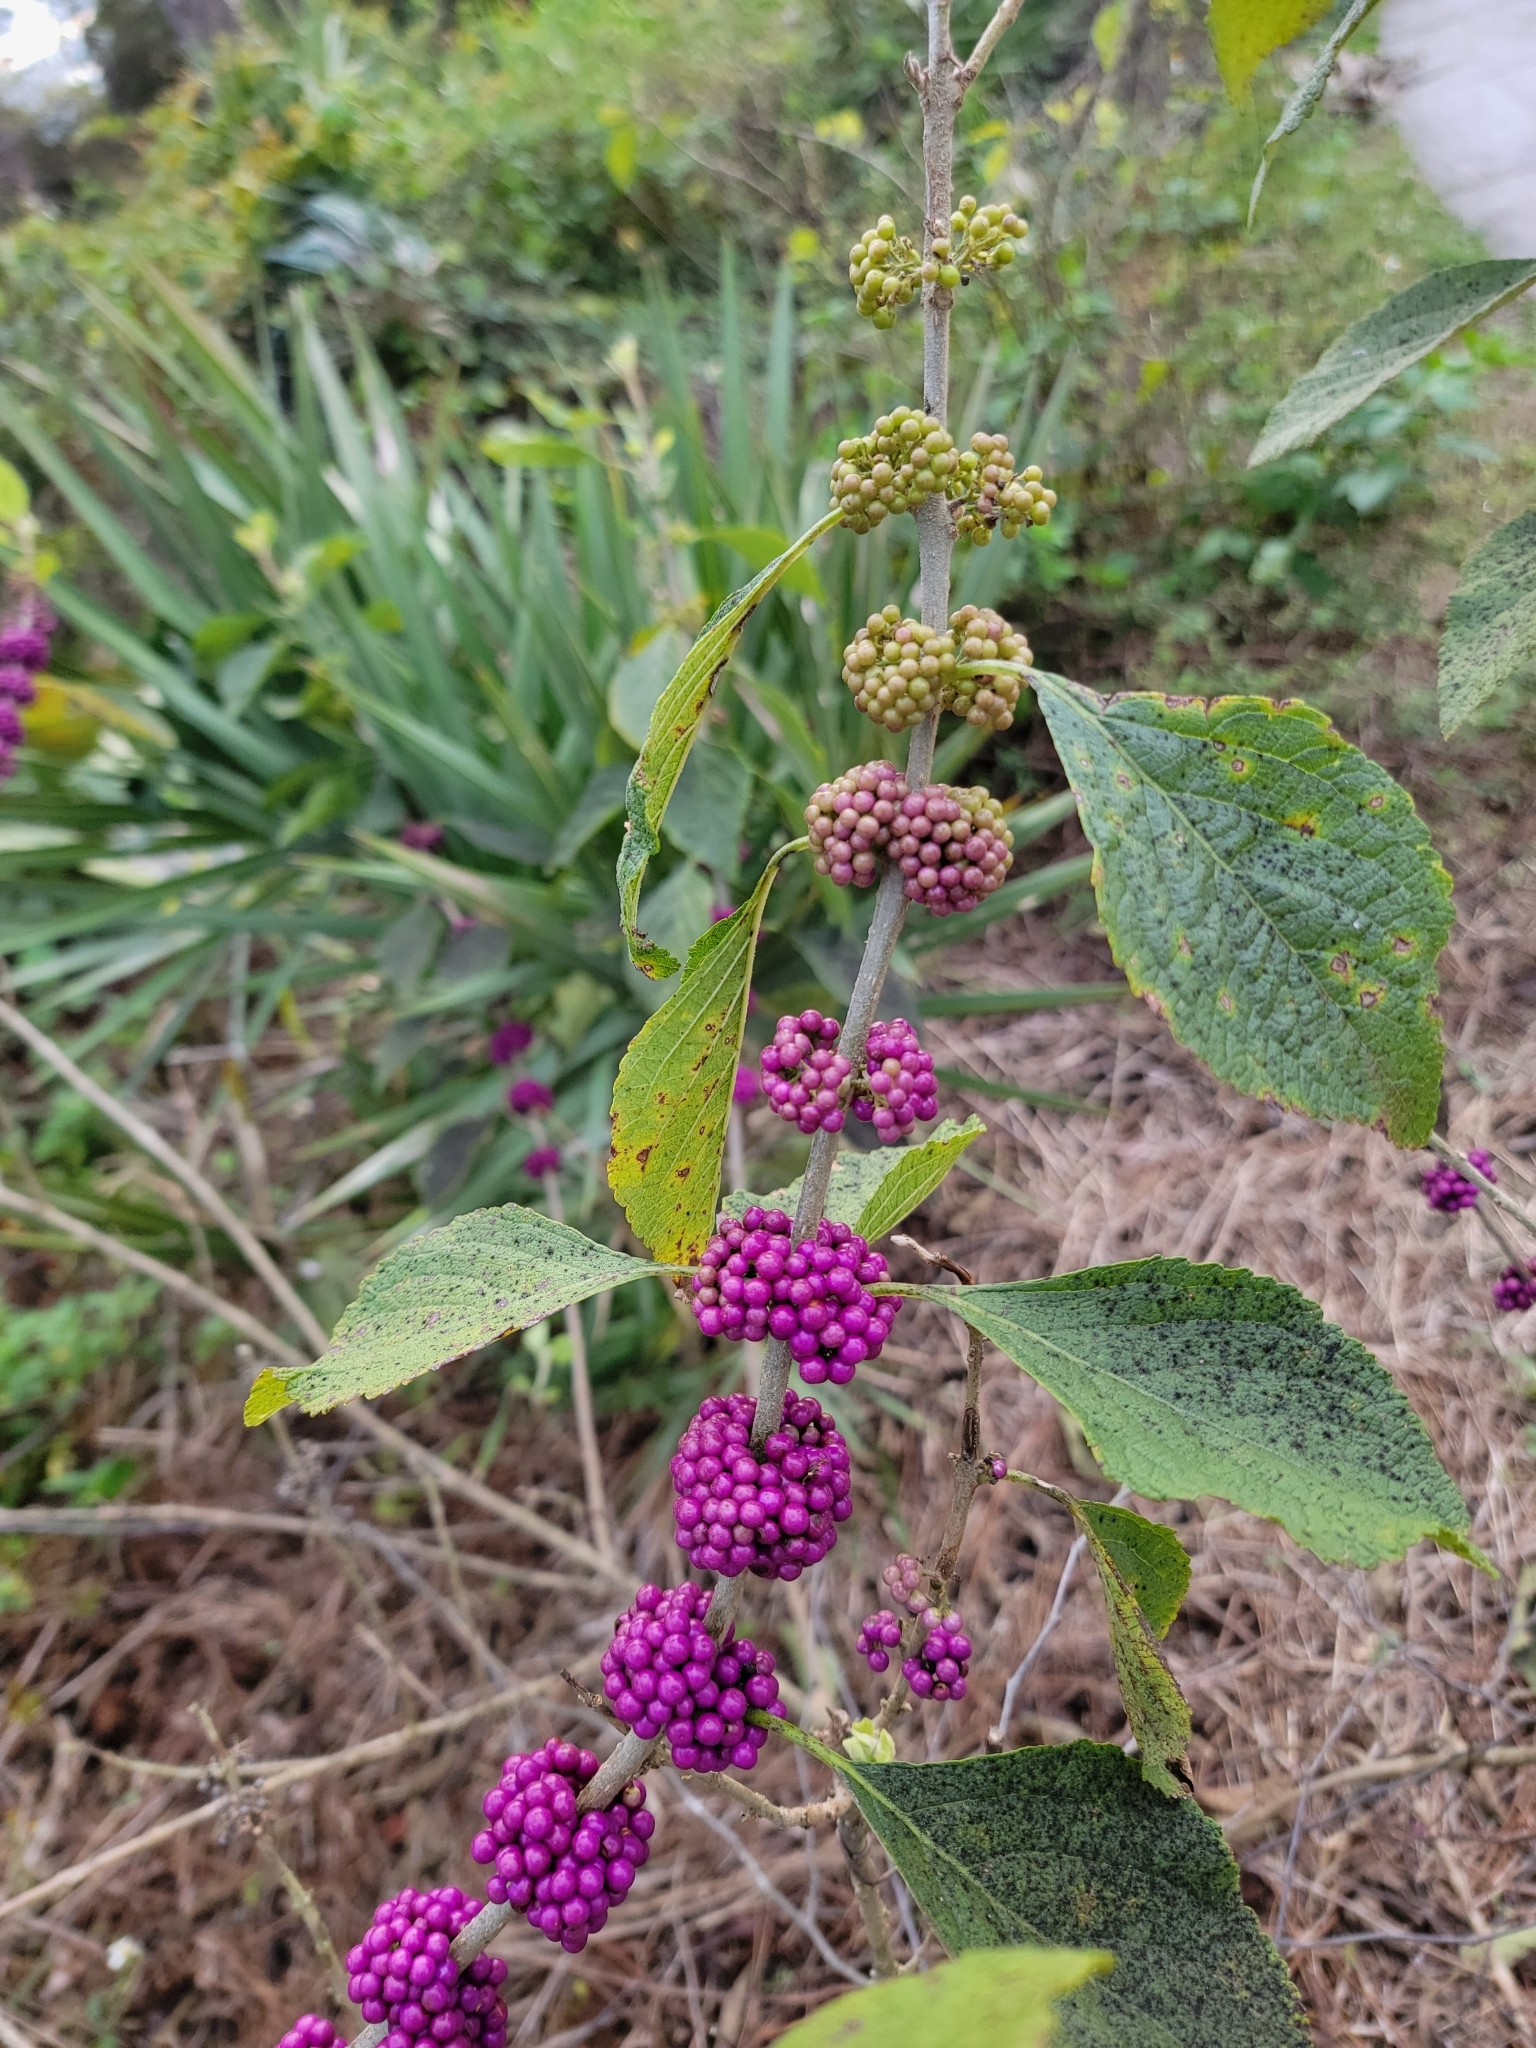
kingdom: Plantae
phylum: Tracheophyta
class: Magnoliopsida
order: Lamiales
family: Lamiaceae
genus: Callicarpa
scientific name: Callicarpa americana
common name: American beautyberry
